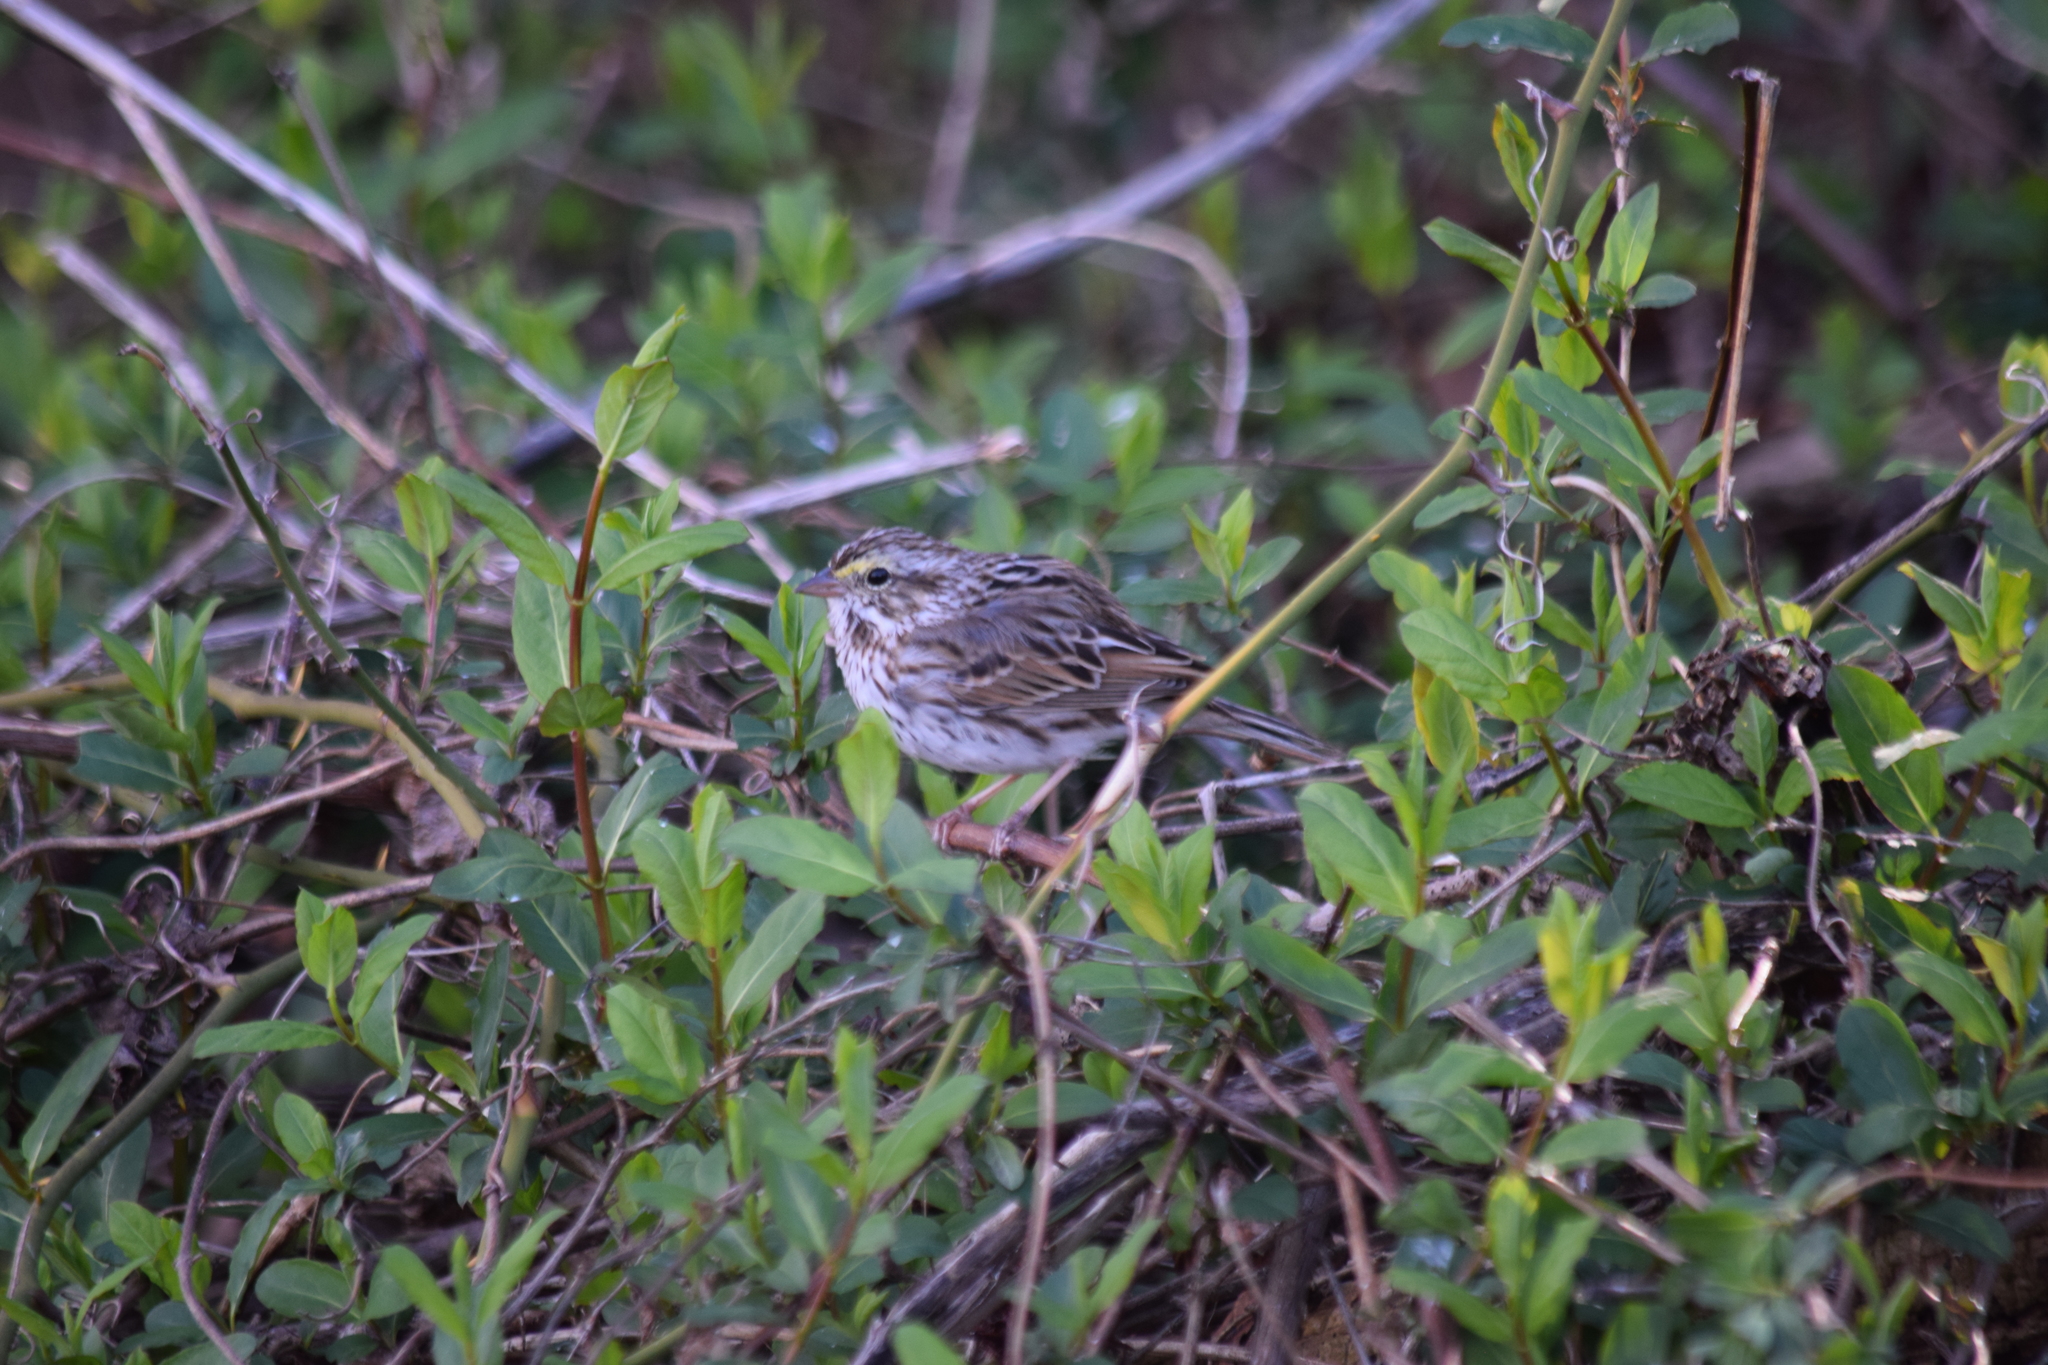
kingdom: Animalia
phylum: Chordata
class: Aves
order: Passeriformes
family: Passerellidae
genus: Passerculus
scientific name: Passerculus sandwichensis
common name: Savannah sparrow
